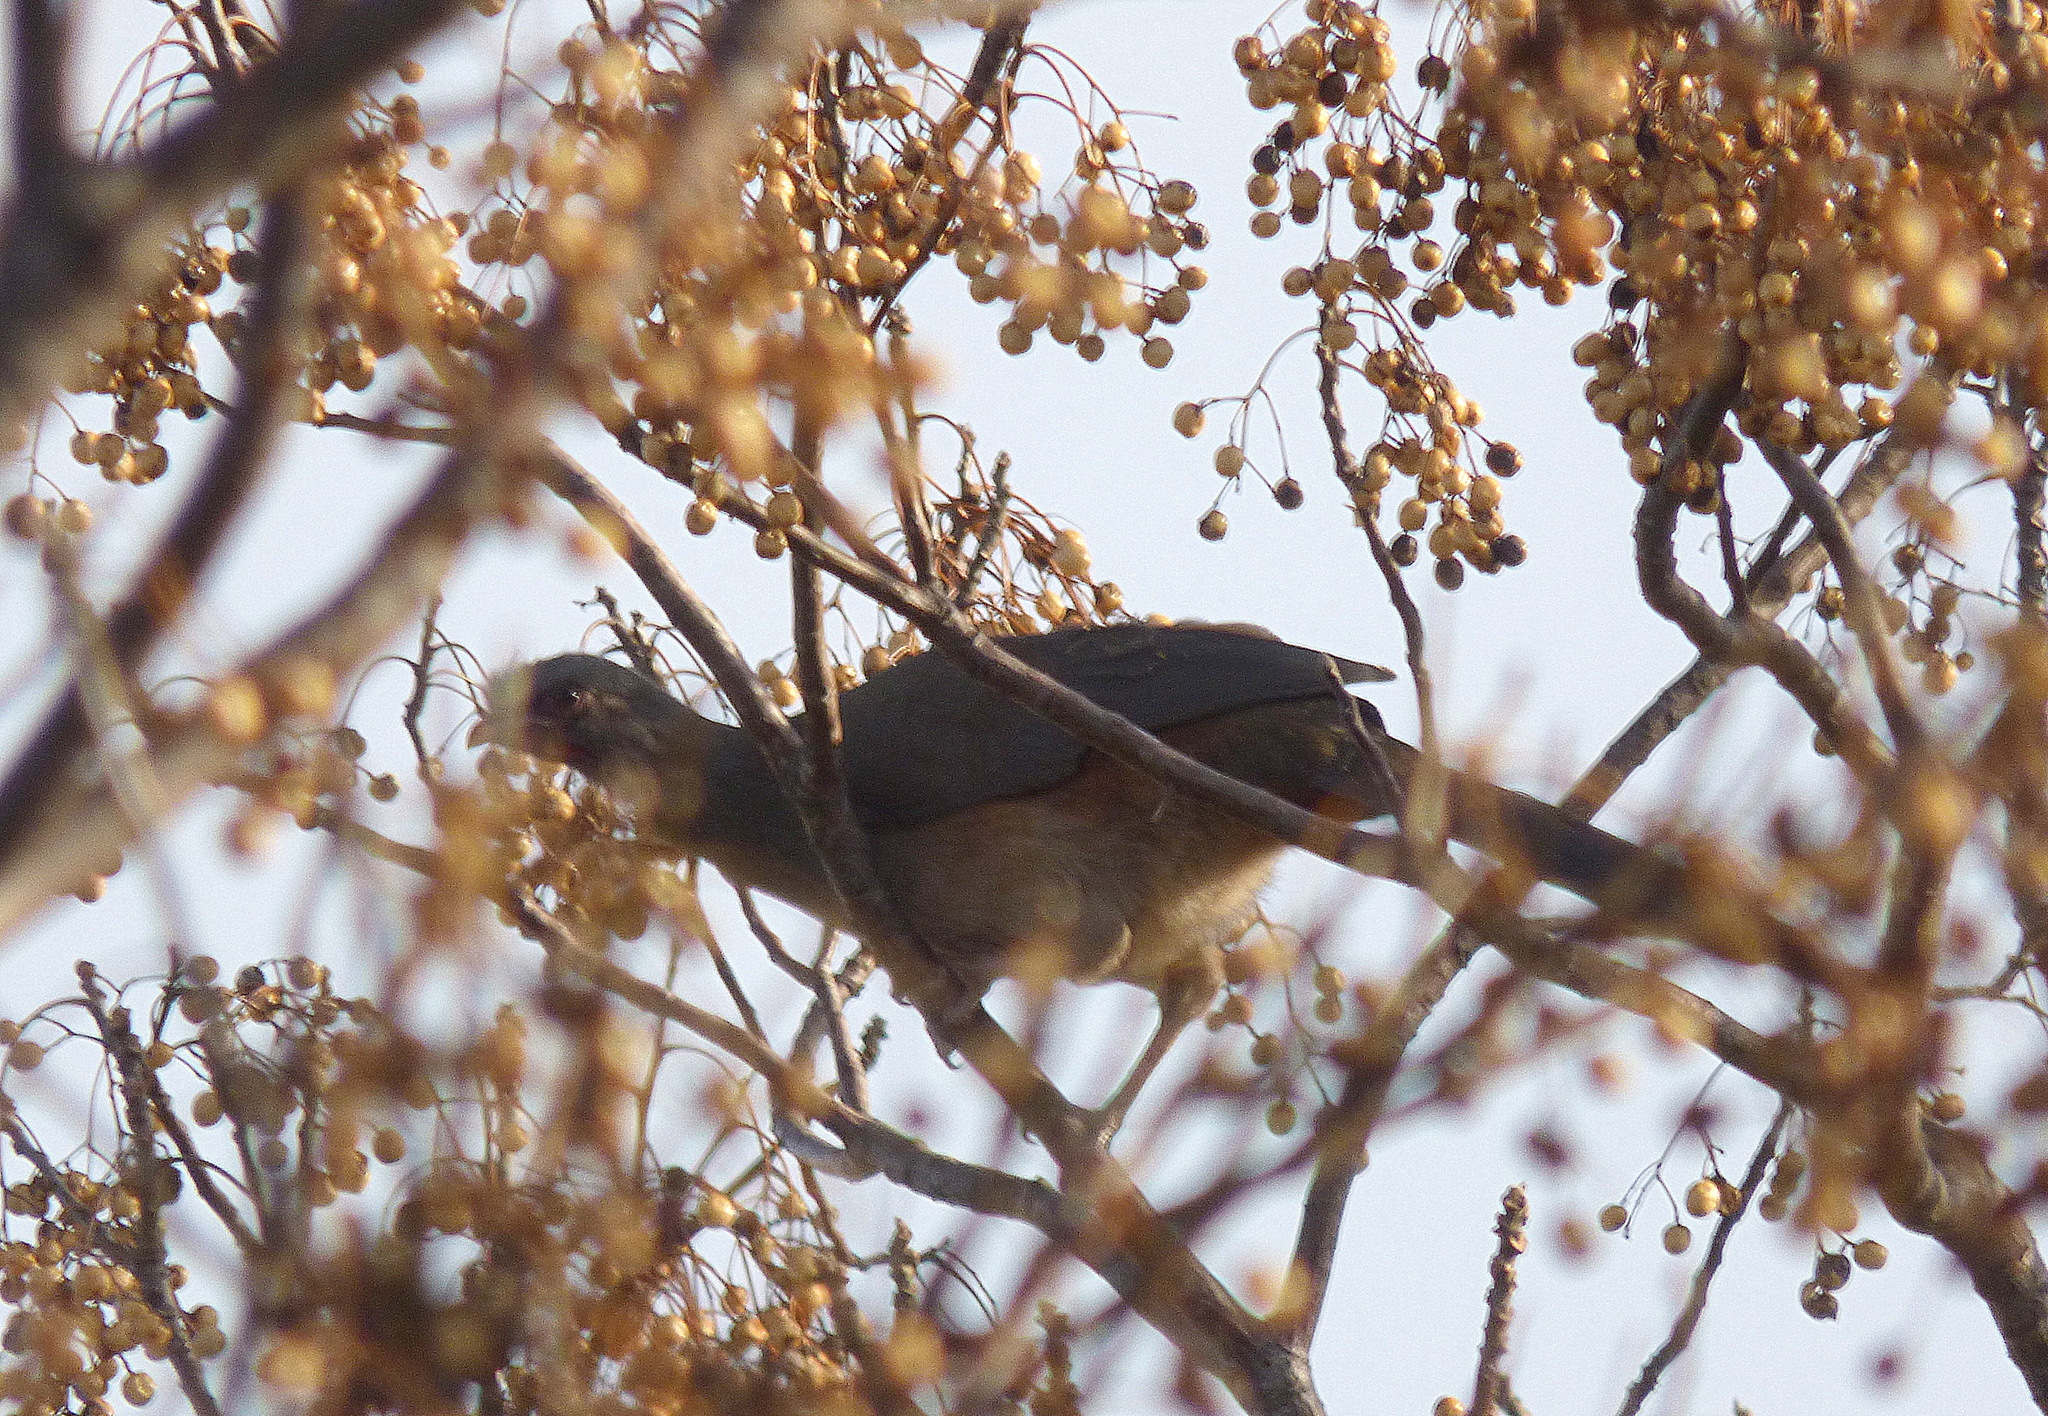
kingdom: Animalia
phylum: Chordata
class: Aves
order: Galliformes
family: Cracidae
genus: Ortalis
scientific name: Ortalis canicollis
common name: Chaco chachalaca
